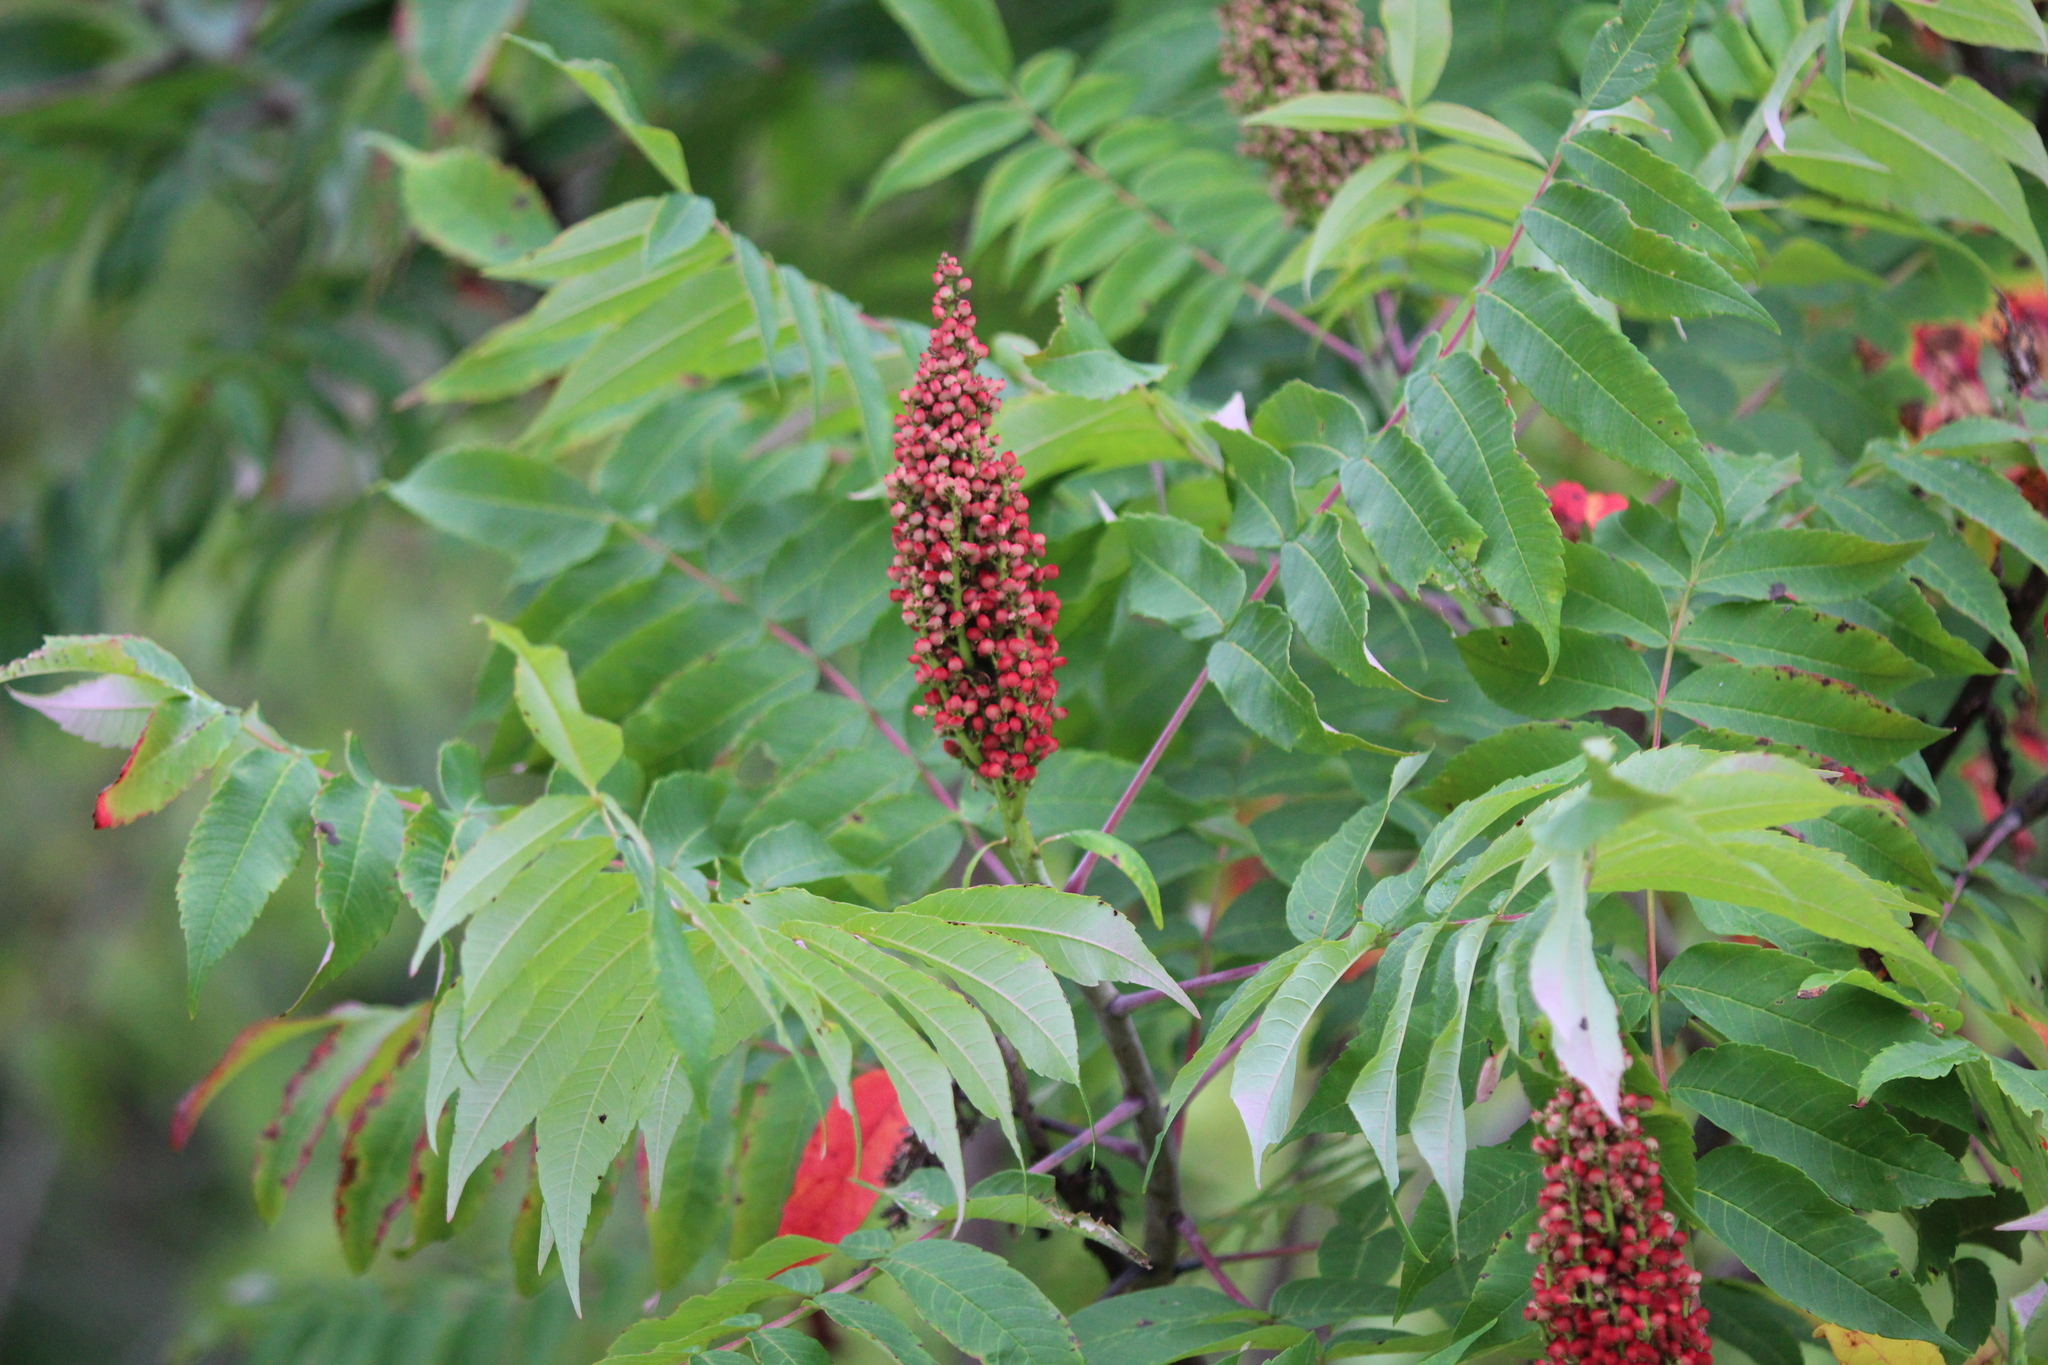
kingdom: Plantae
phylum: Tracheophyta
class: Magnoliopsida
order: Sapindales
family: Anacardiaceae
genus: Rhus
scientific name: Rhus glabra
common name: Scarlet sumac
